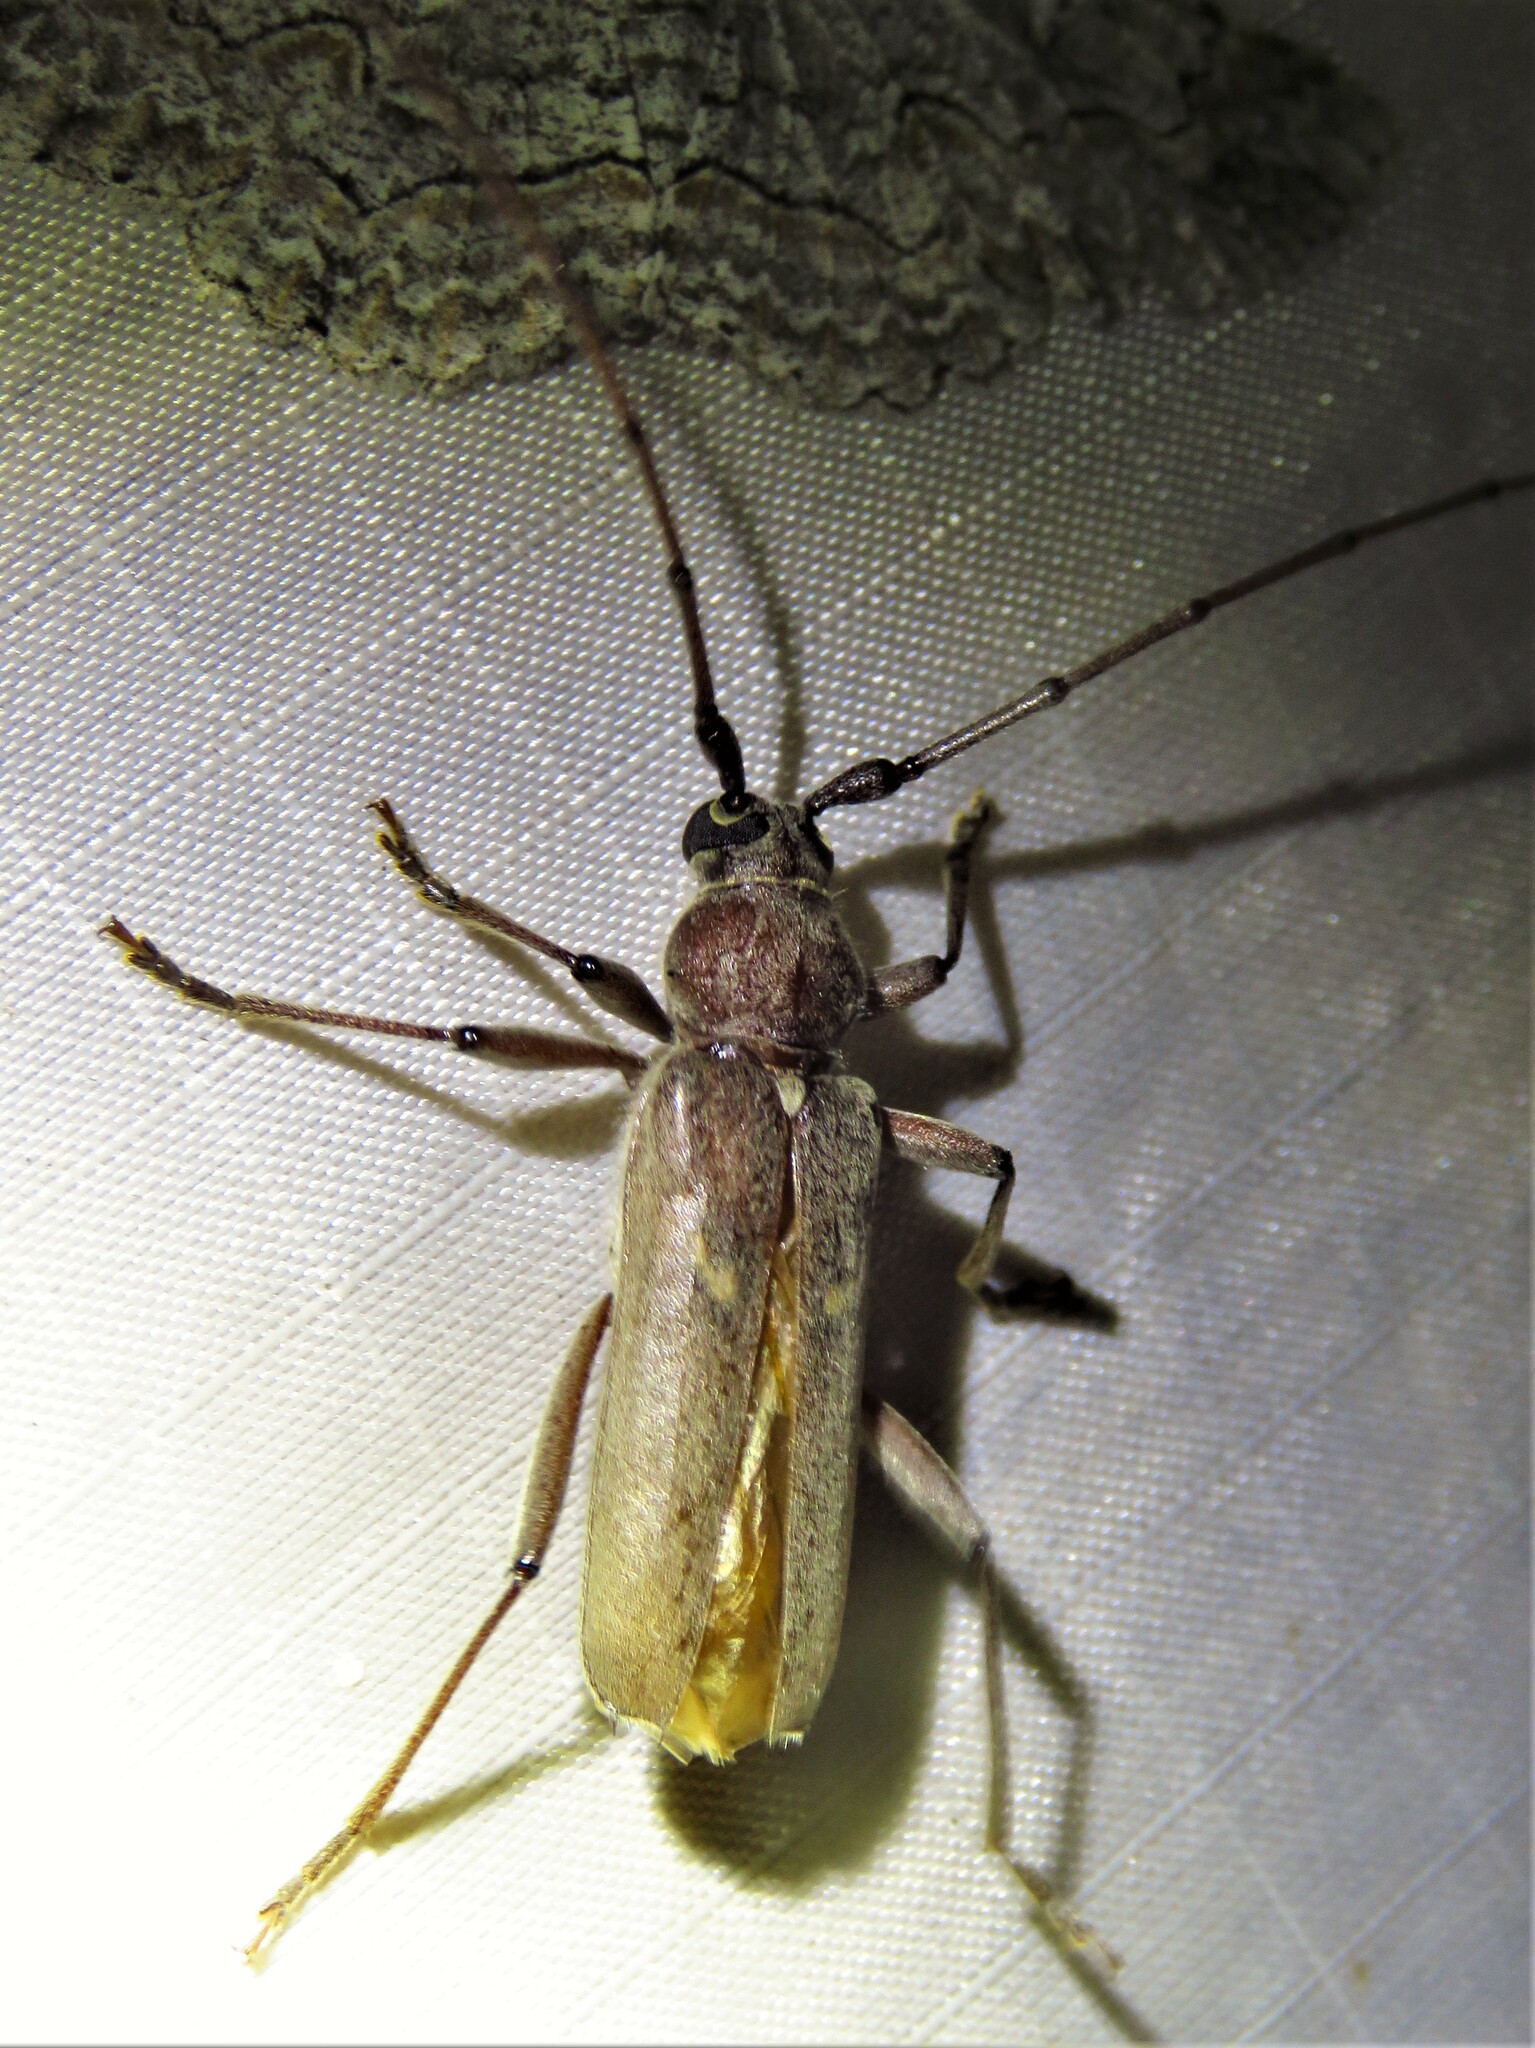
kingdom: Animalia
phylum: Arthropoda
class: Insecta
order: Coleoptera
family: Cerambycidae
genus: Knulliana
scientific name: Knulliana cincta
